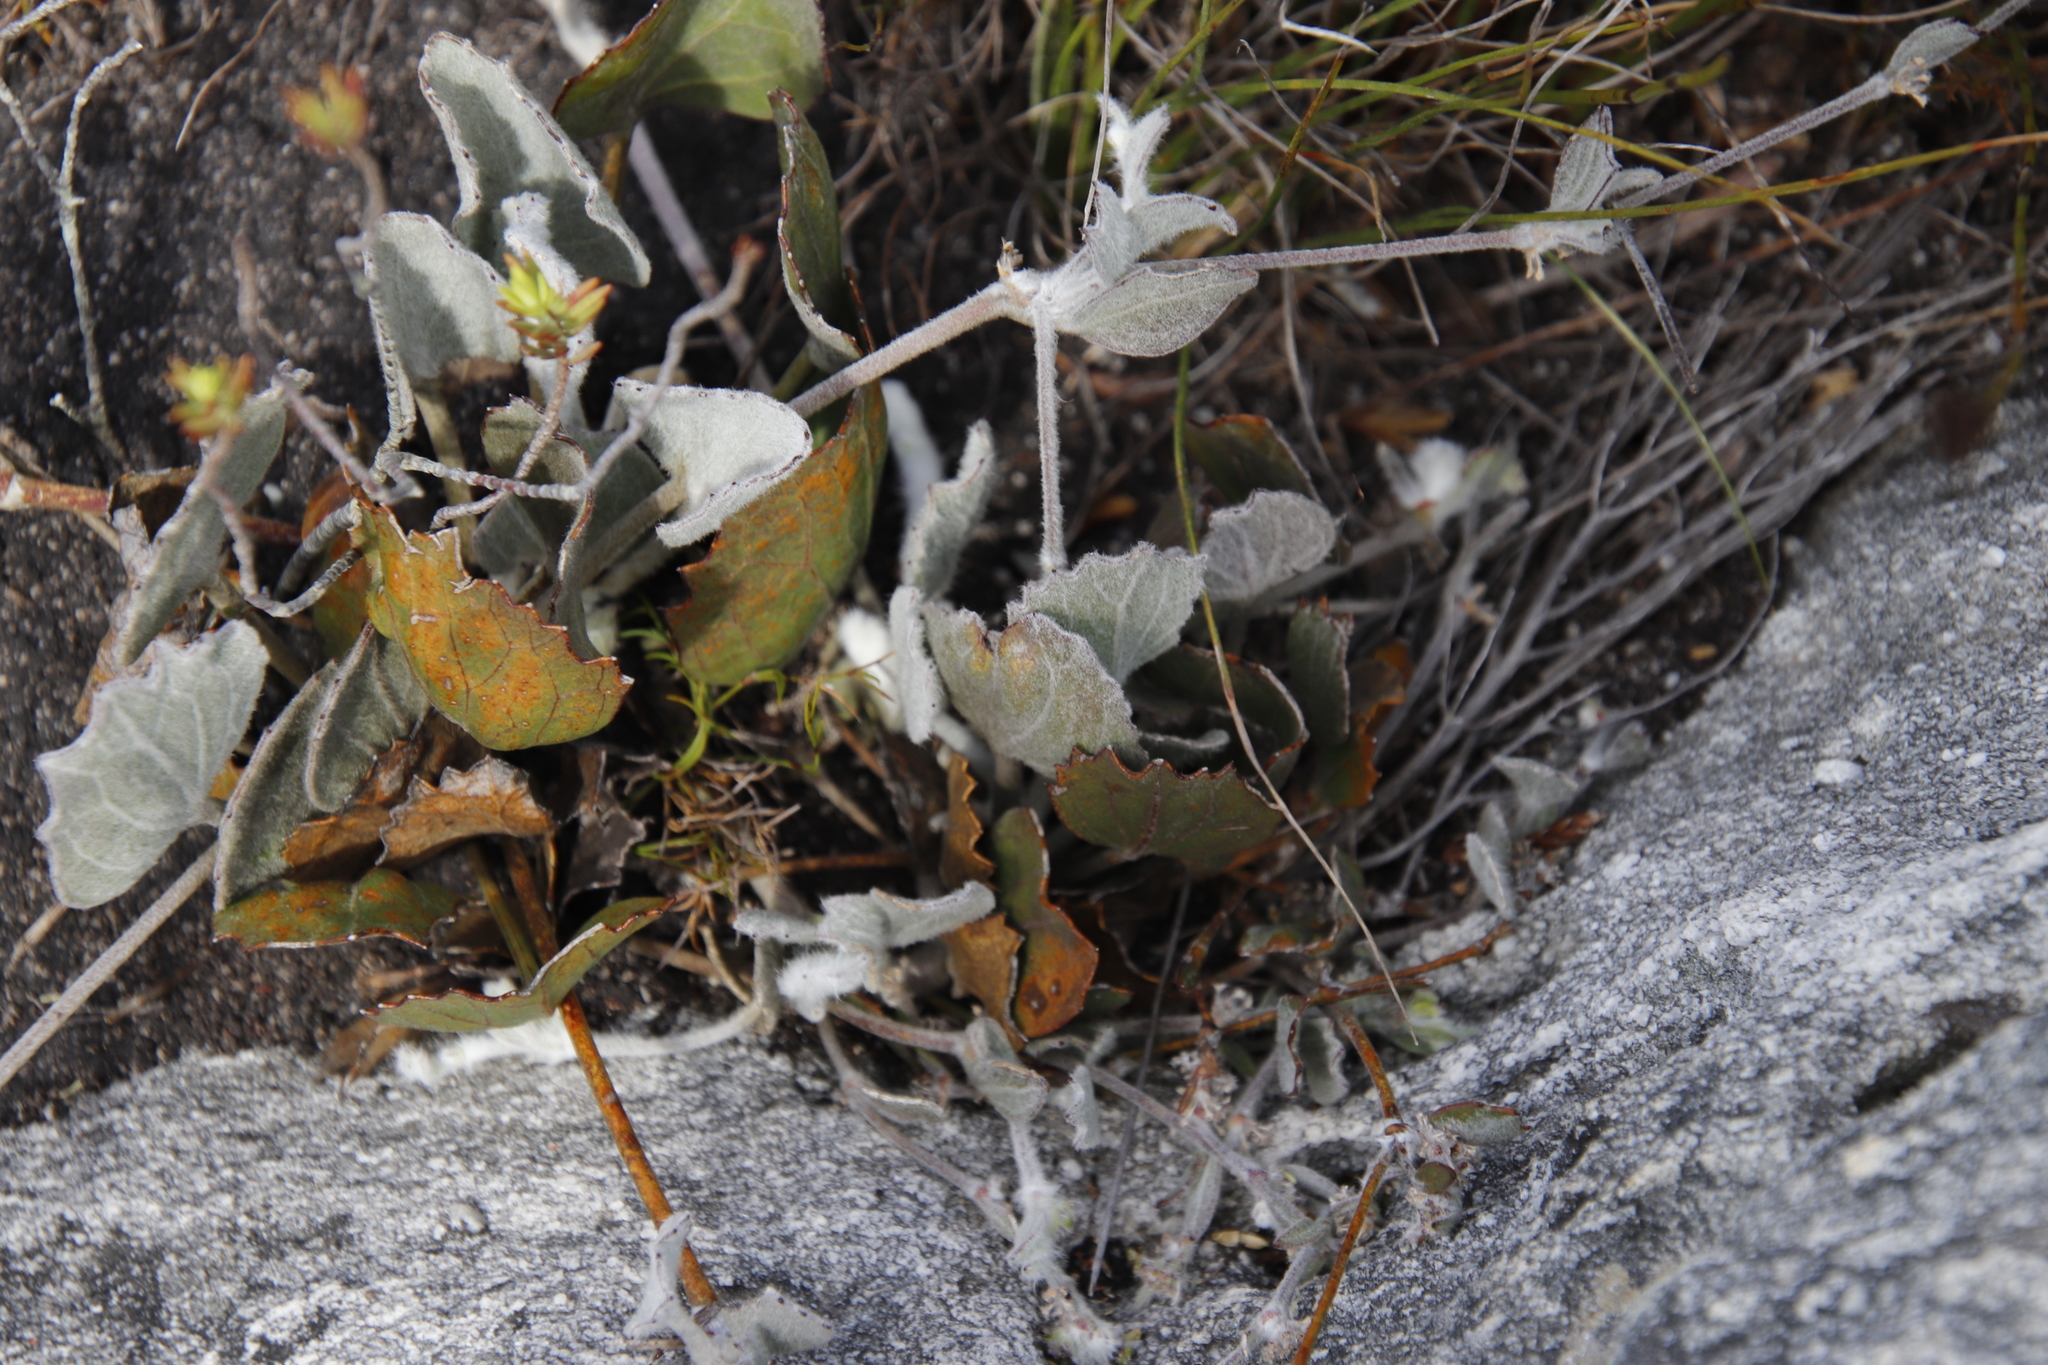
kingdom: Plantae
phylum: Tracheophyta
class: Magnoliopsida
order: Apiales
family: Apiaceae
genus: Centella
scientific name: Centella difformis
